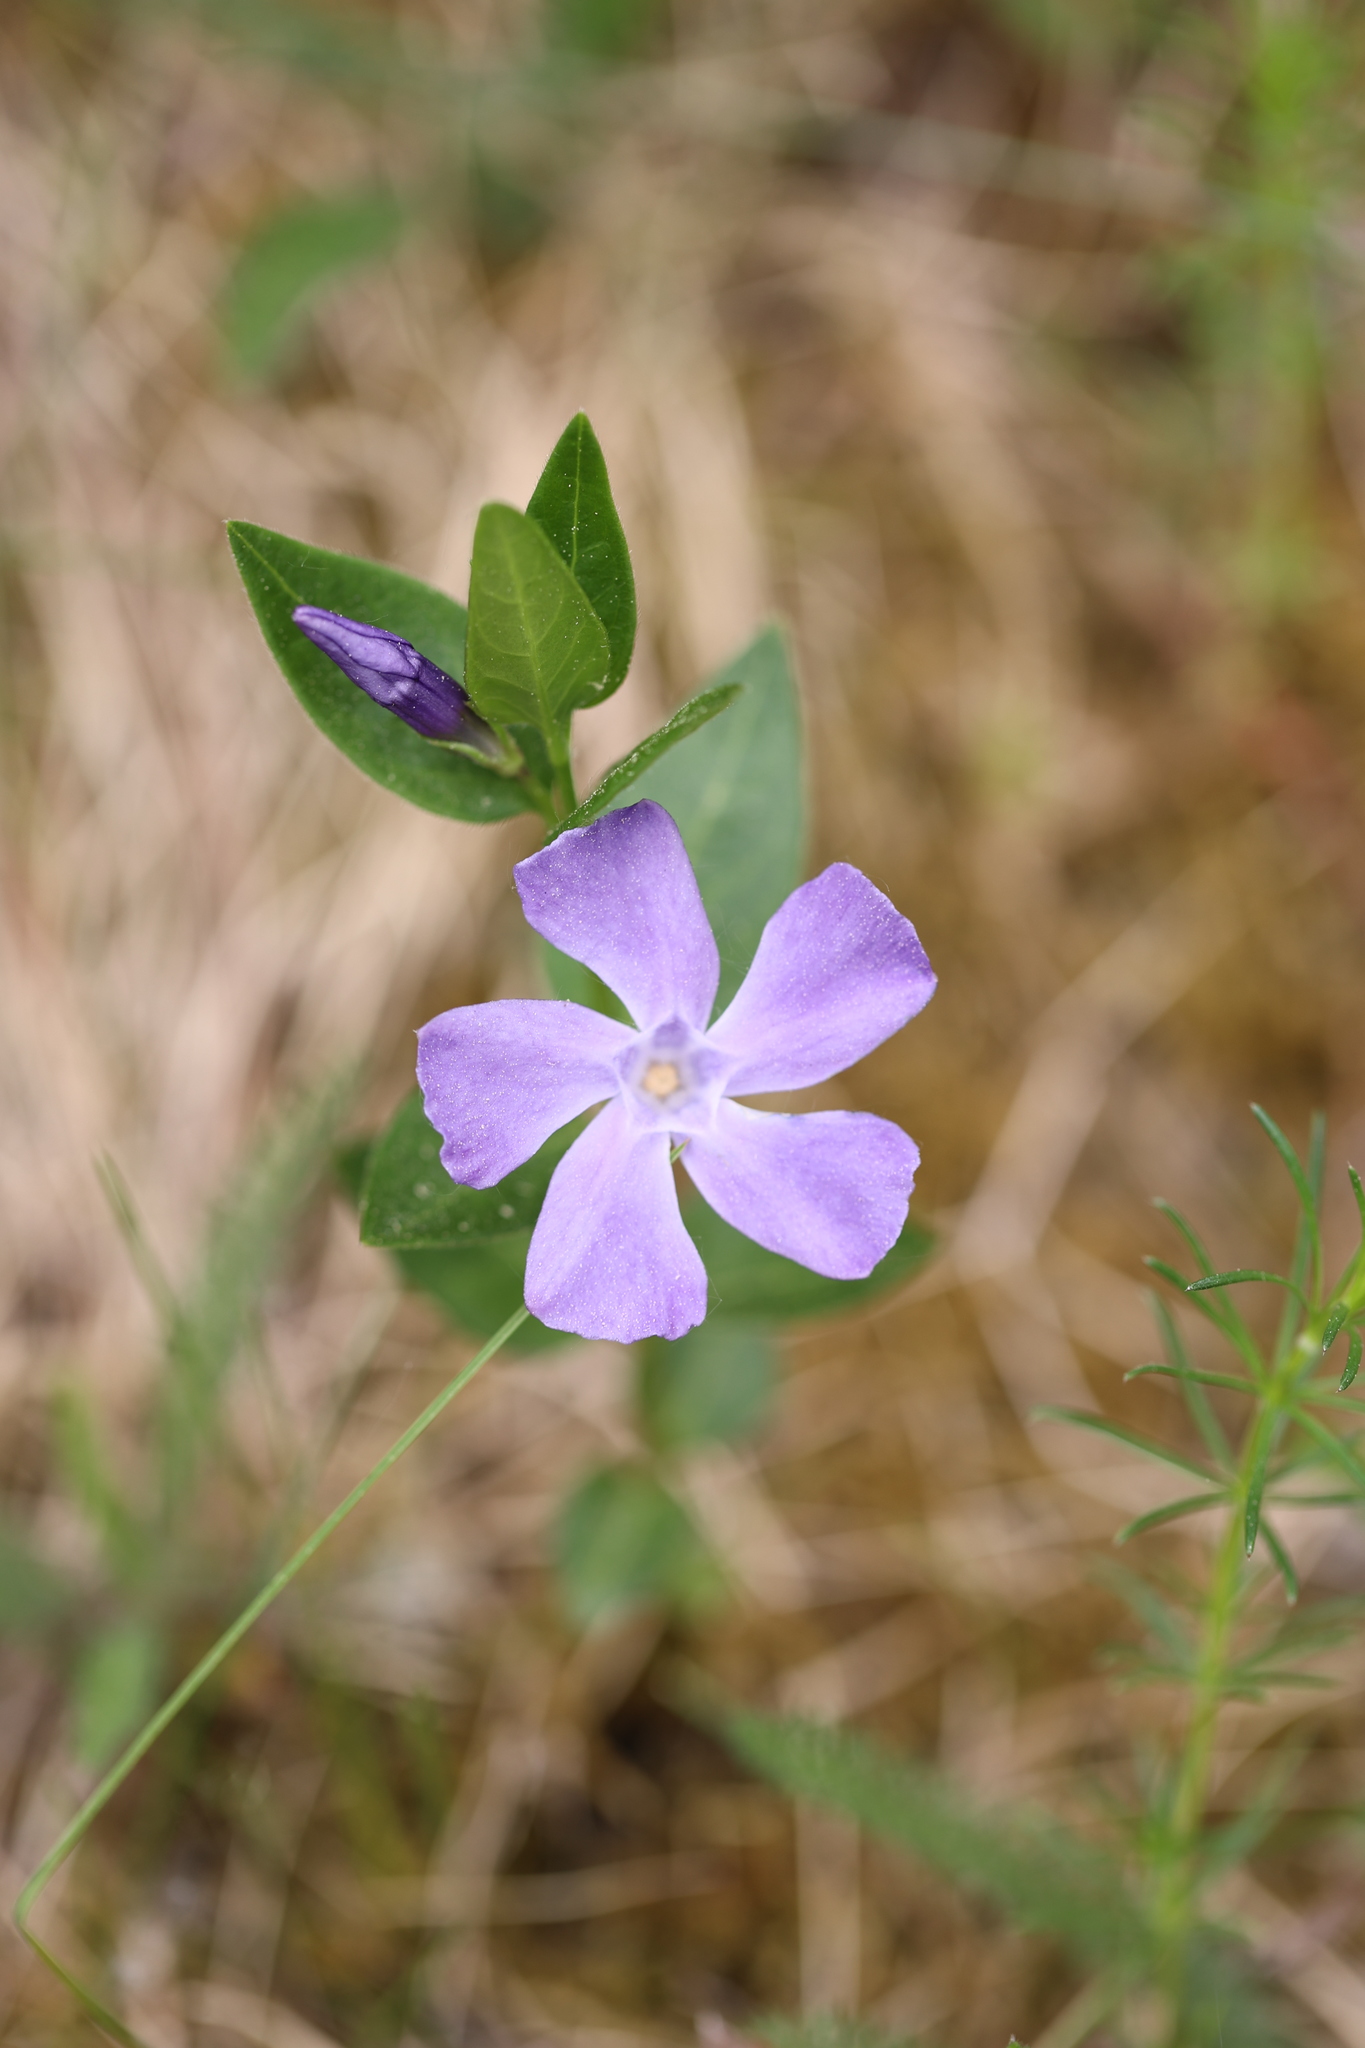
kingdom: Plantae
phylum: Tracheophyta
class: Magnoliopsida
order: Gentianales
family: Apocynaceae
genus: Vinca
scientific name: Vinca minor
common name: Lesser periwinkle
